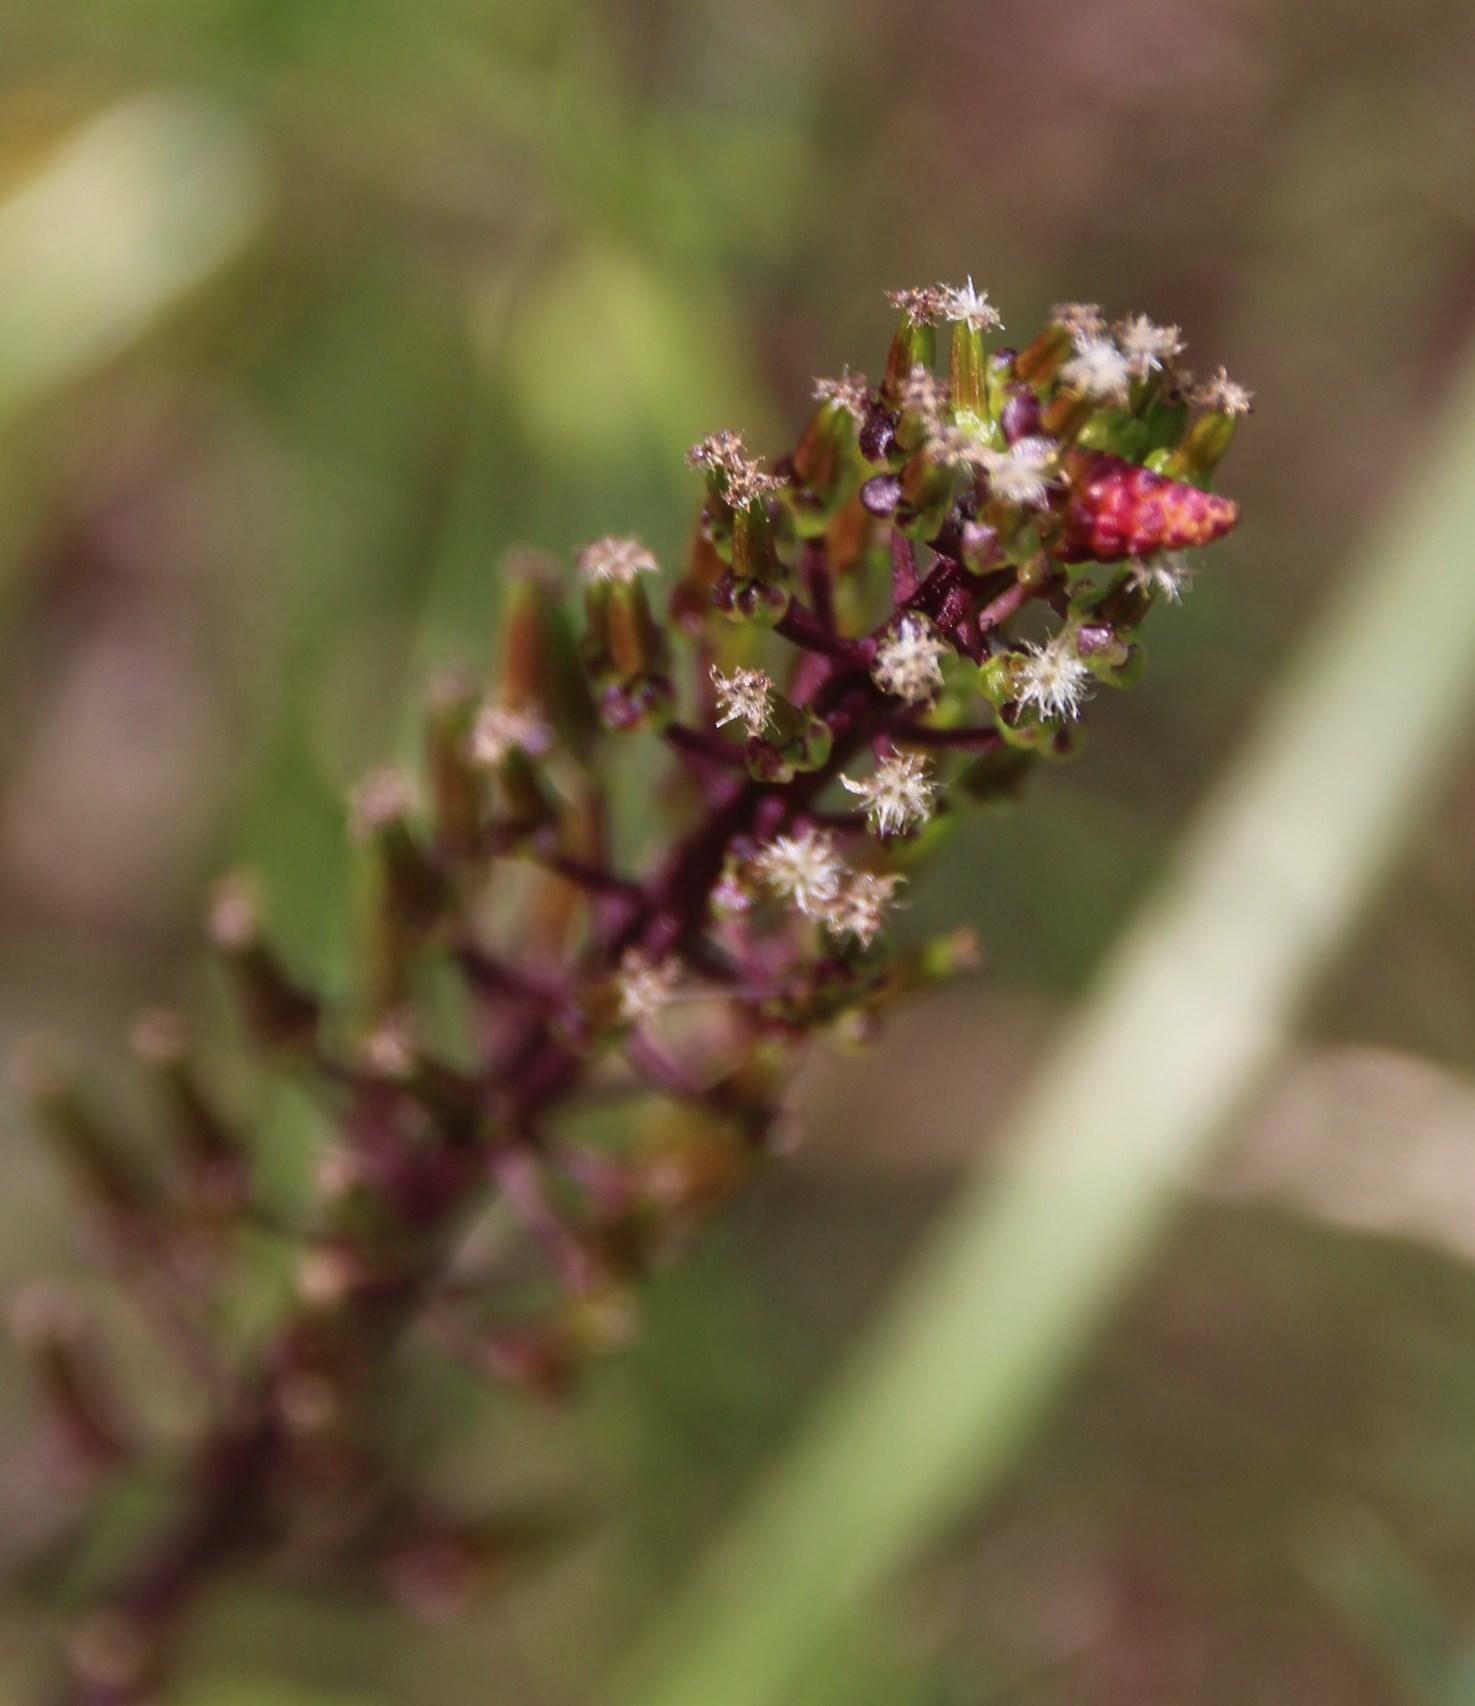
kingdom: Plantae
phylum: Tracheophyta
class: Liliopsida
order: Alismatales
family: Juncaginaceae
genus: Triglochin
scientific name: Triglochin bulbosa
